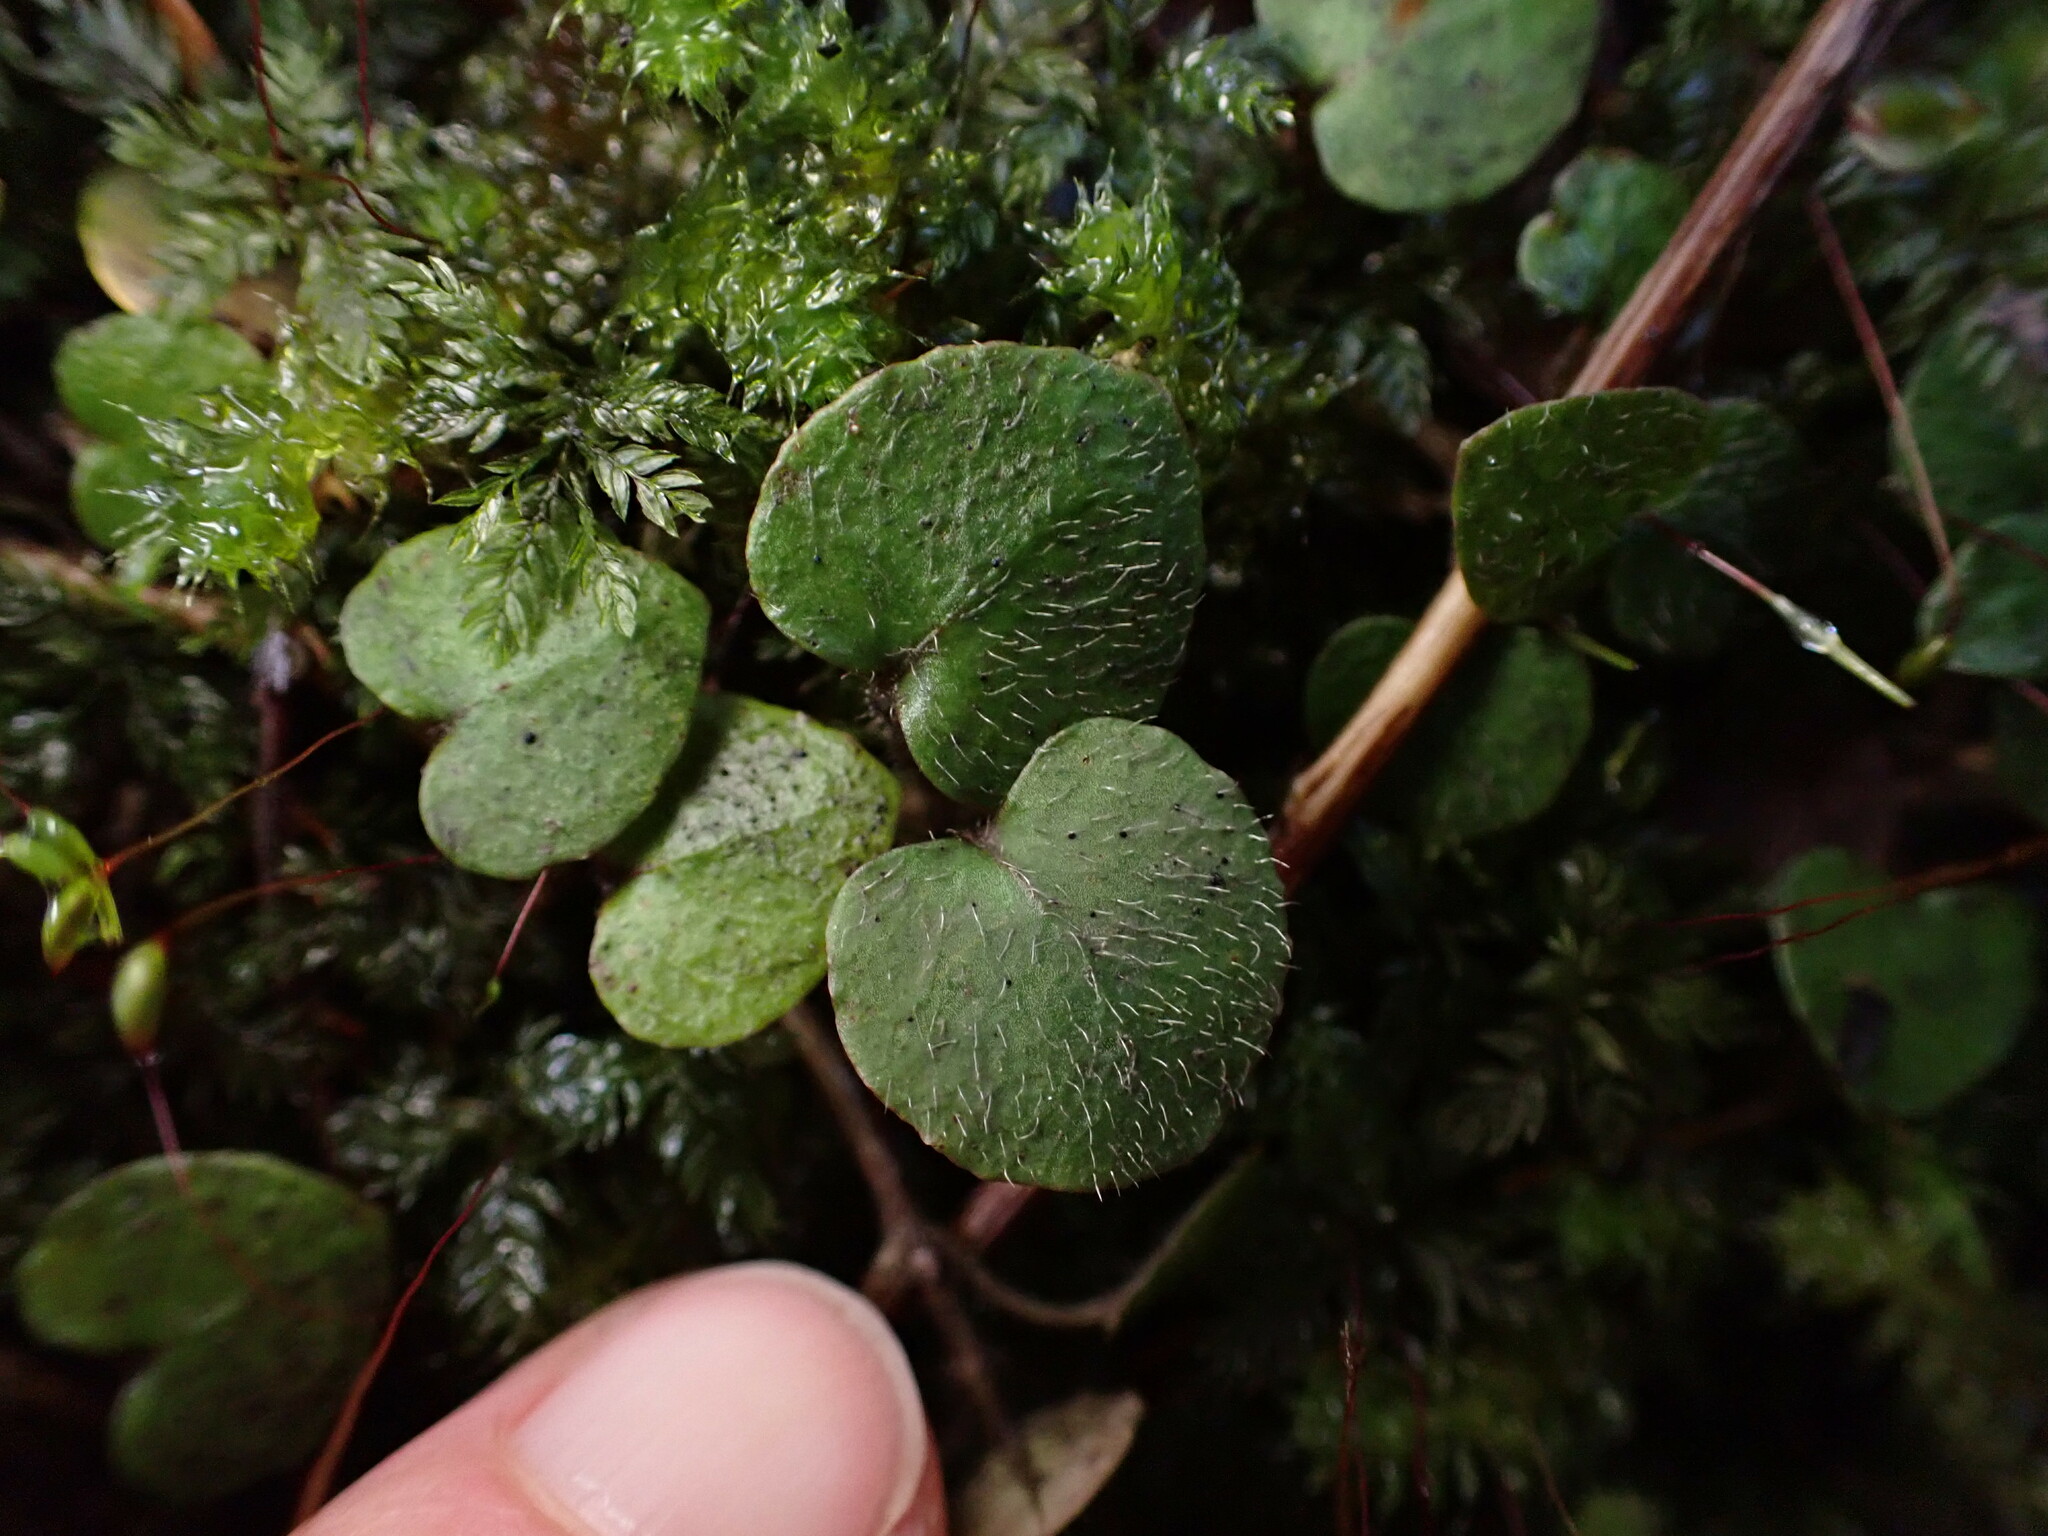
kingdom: Plantae
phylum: Tracheophyta
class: Magnoliopsida
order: Gentianales
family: Rubiaceae
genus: Nertera
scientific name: Nertera villosa
